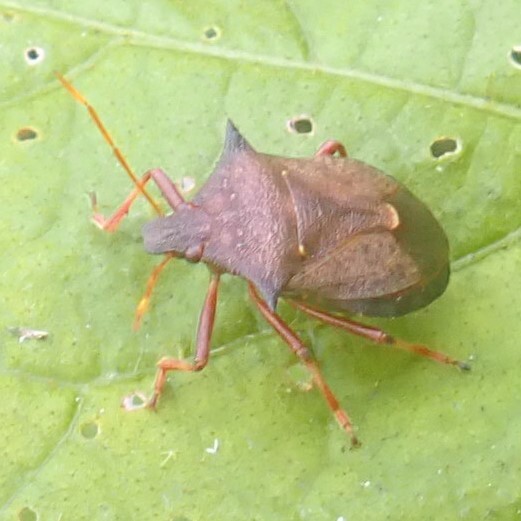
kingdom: Animalia
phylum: Arthropoda
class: Insecta
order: Hemiptera
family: Pentatomidae
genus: Picromerus
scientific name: Picromerus bidens
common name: Spiked shieldbug
